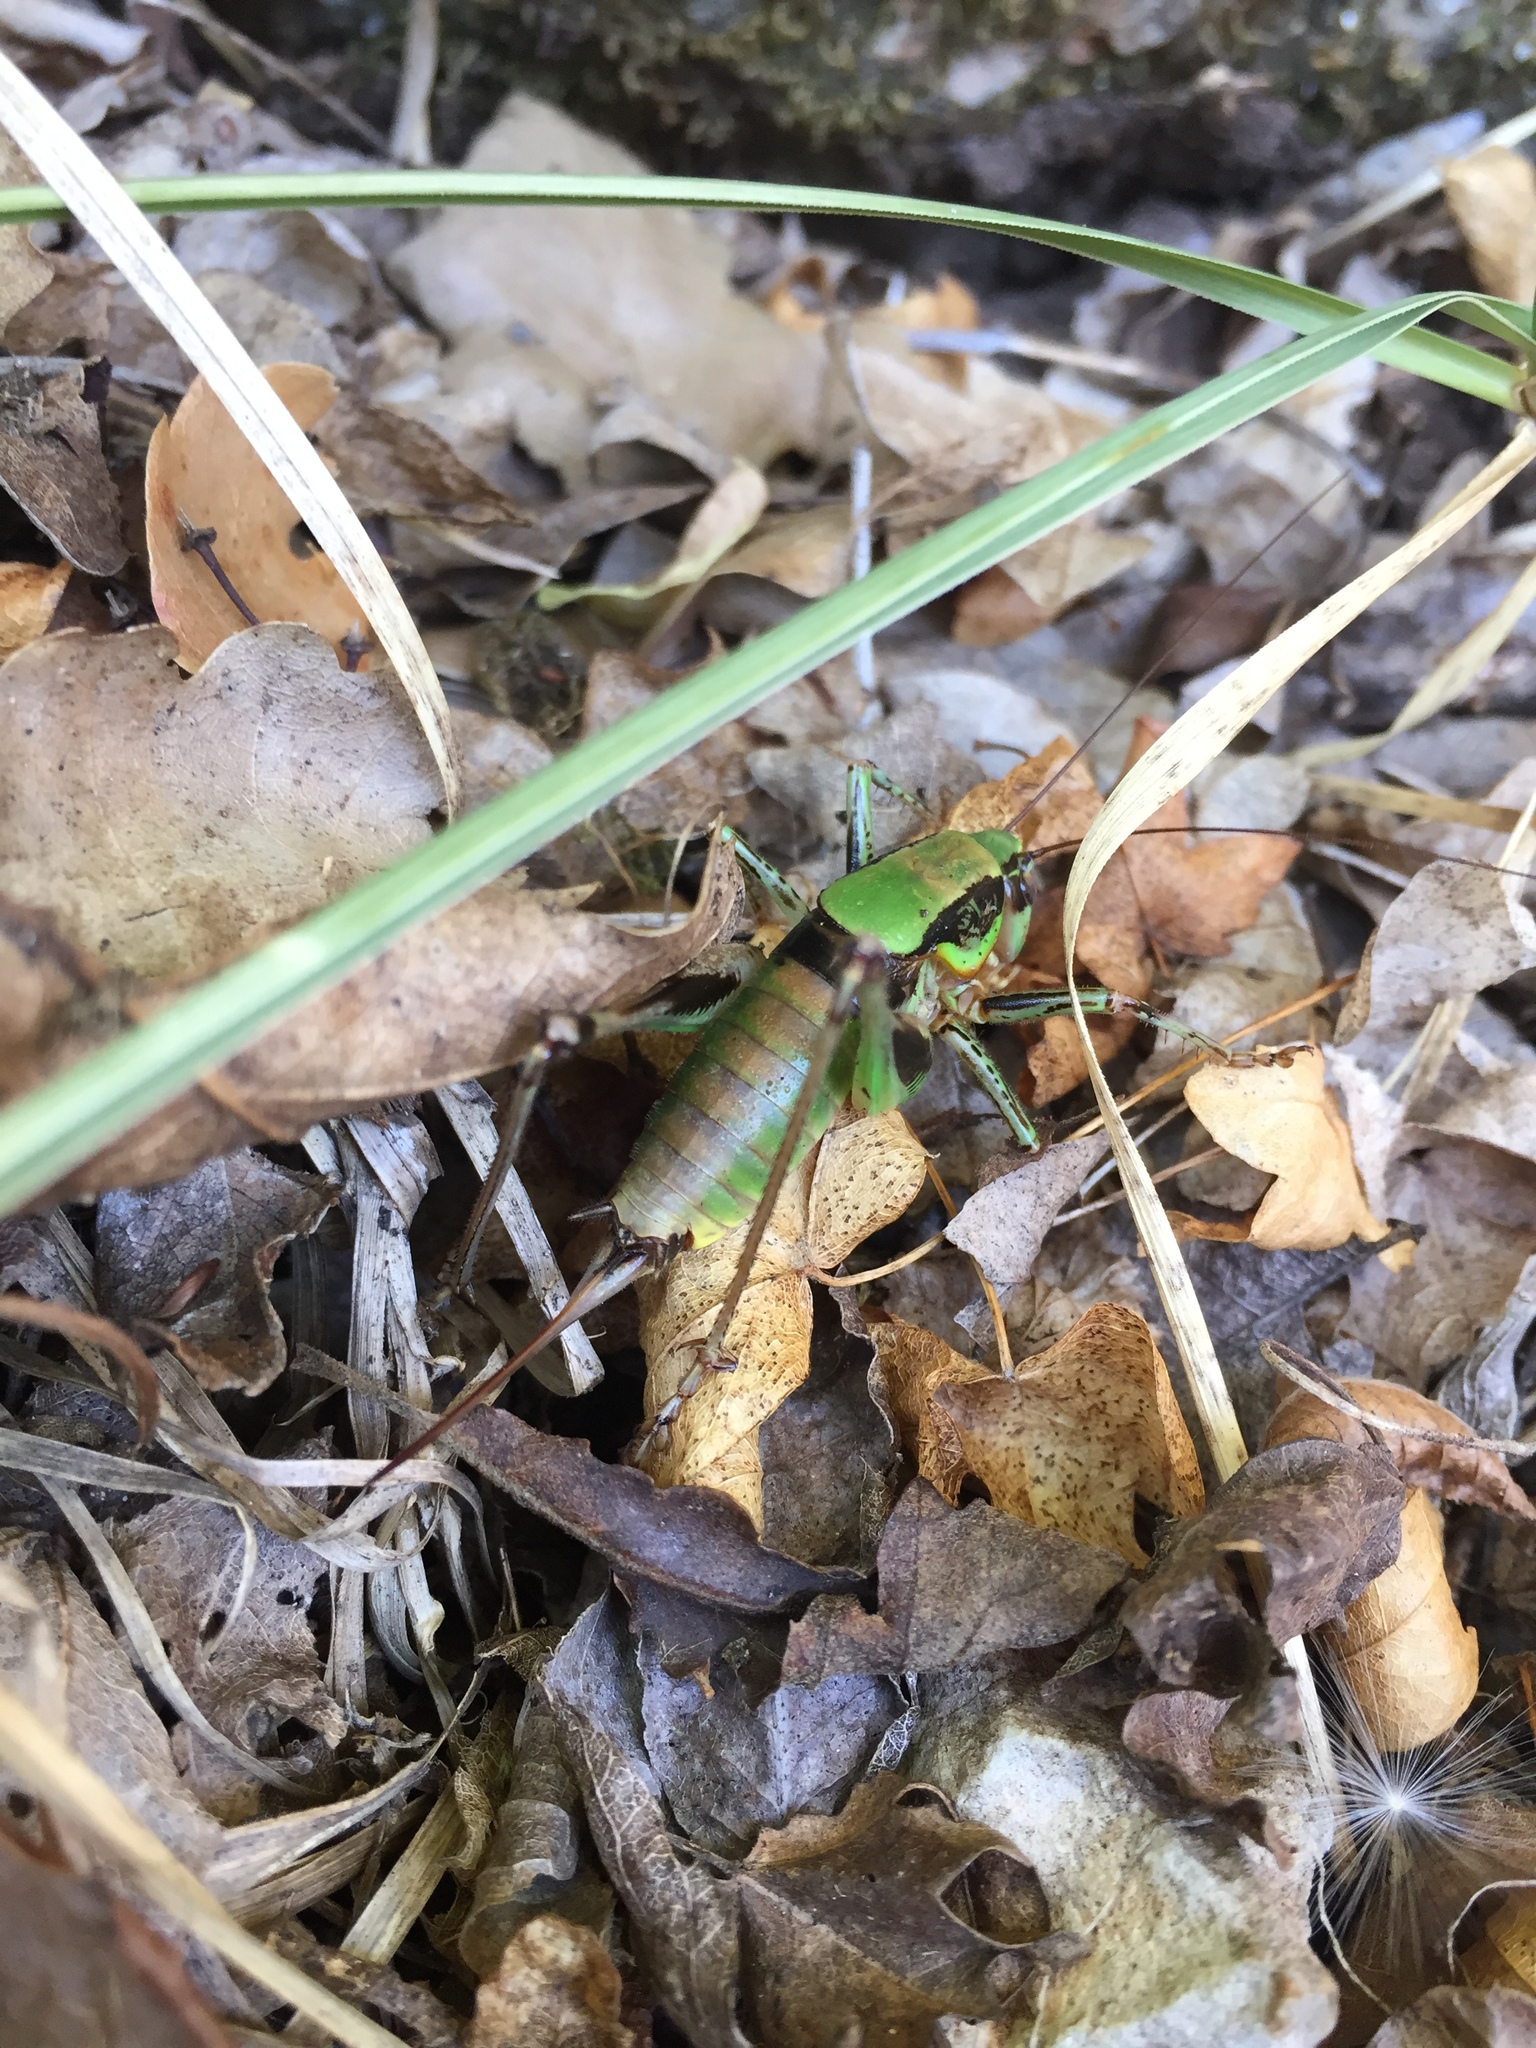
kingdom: Animalia
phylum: Arthropoda
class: Insecta
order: Orthoptera
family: Tettigoniidae
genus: Eupholidoptera
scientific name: Eupholidoptera schmidti
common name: Schmidt's marbled bush-cricket
